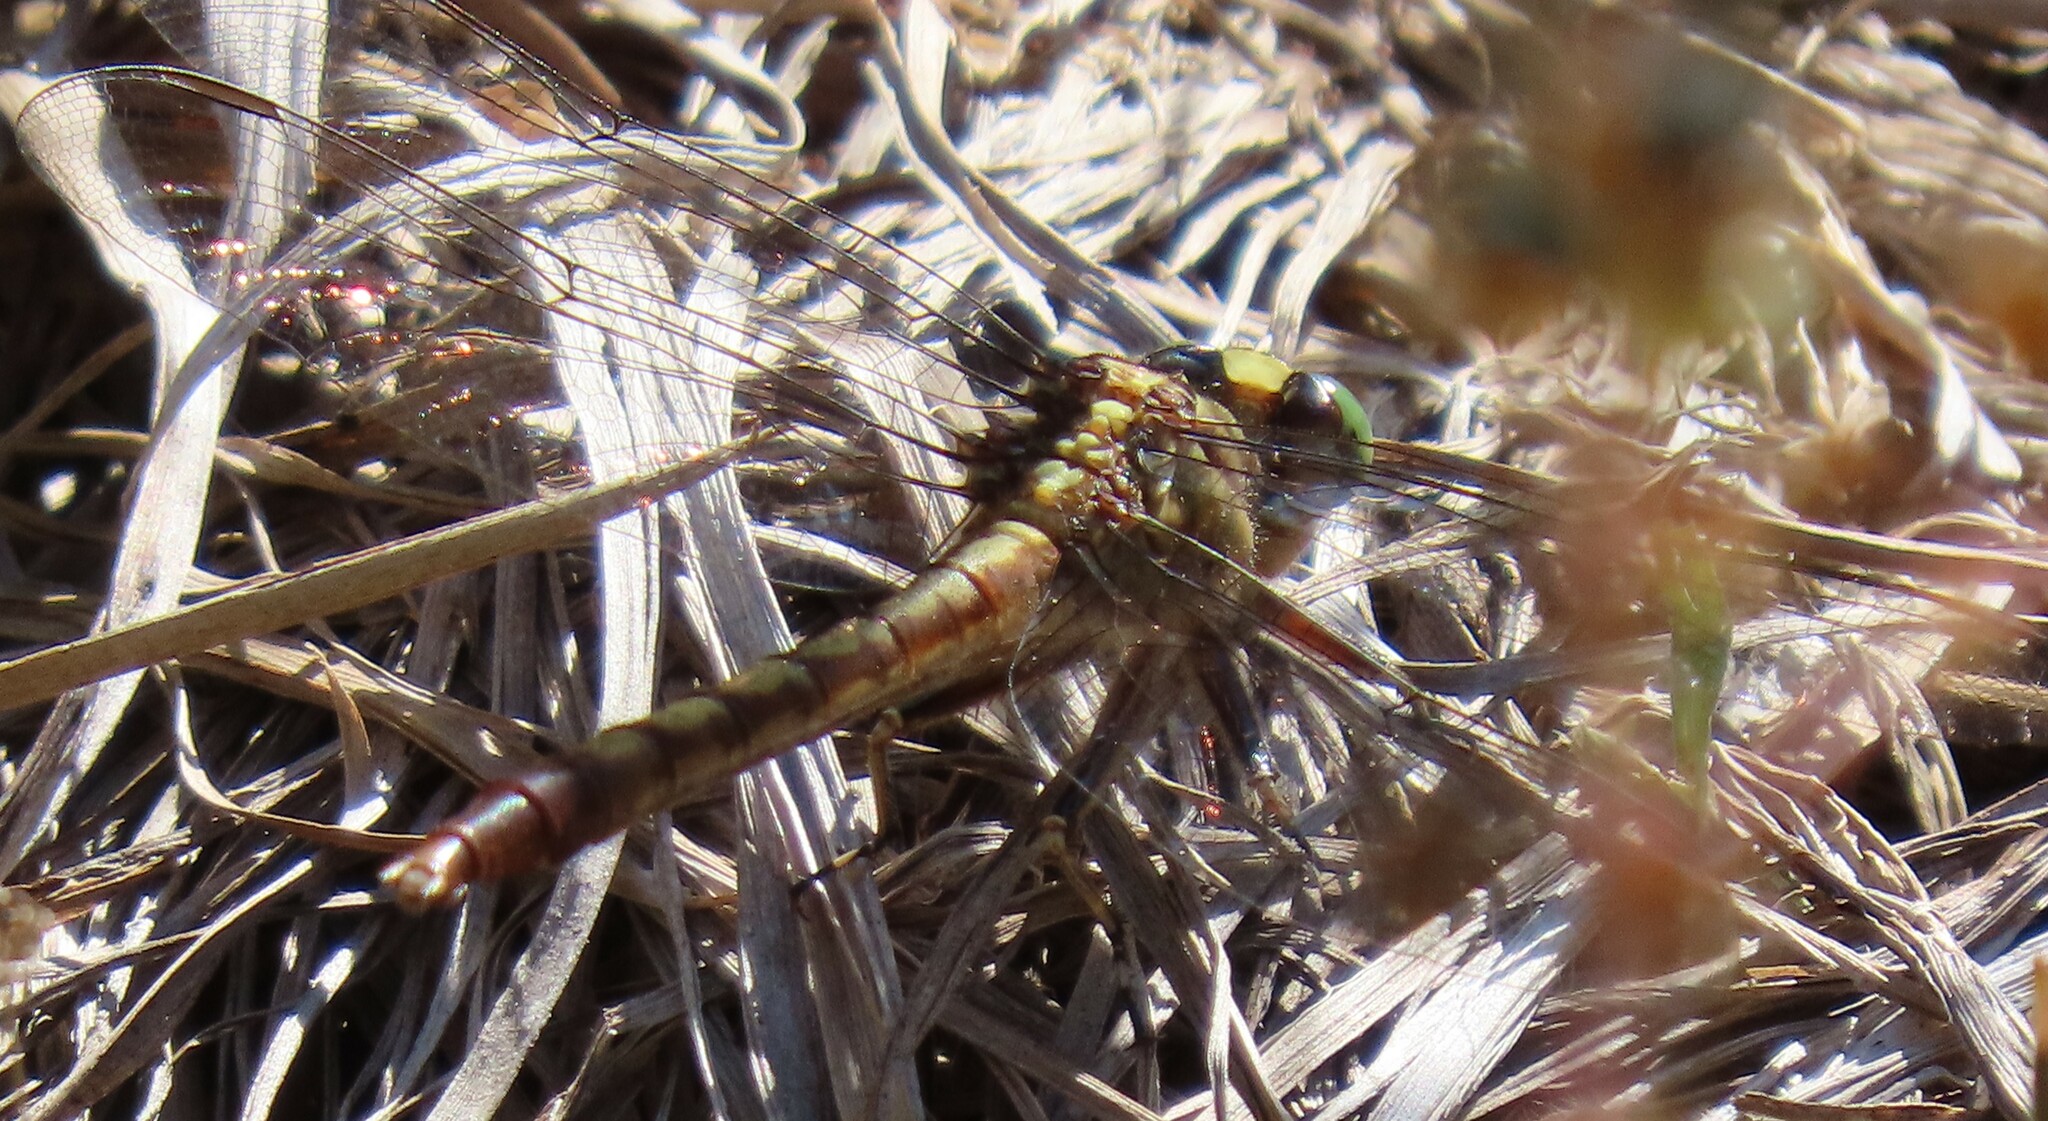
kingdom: Animalia
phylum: Arthropoda
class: Insecta
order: Odonata
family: Gomphidae
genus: Arigomphus
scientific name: Arigomphus pallidus
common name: Gray-green clubtail
